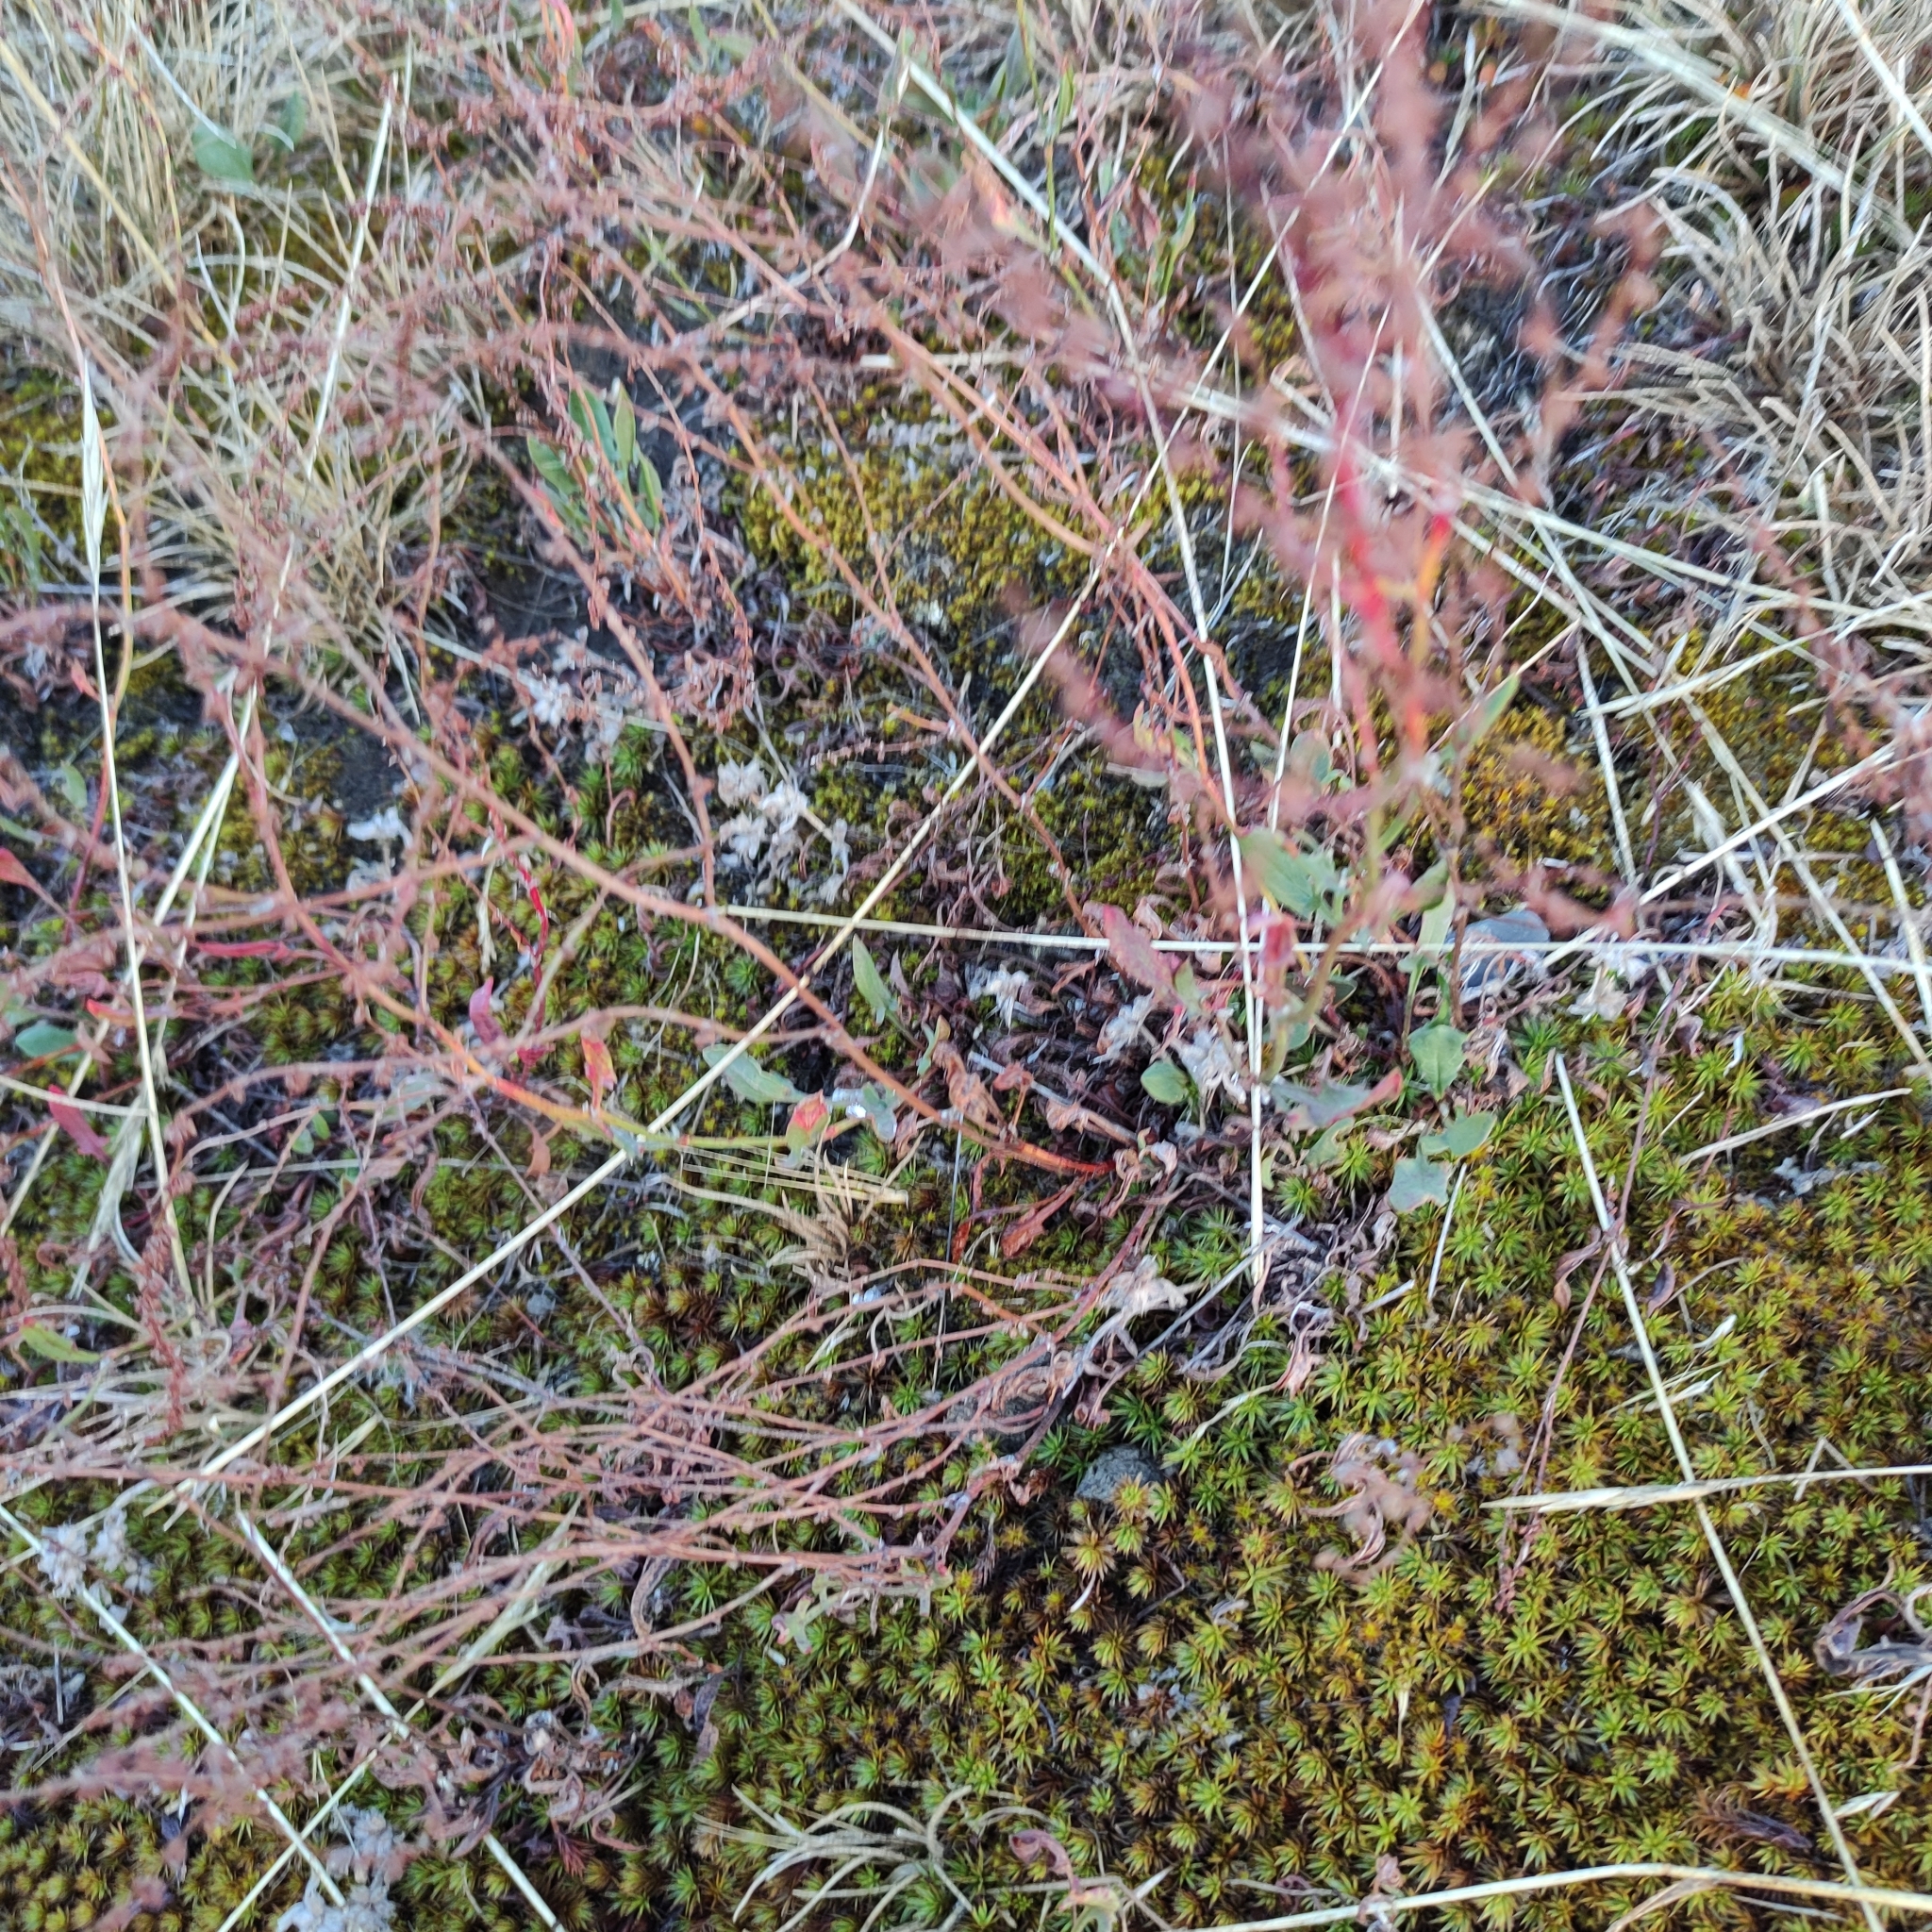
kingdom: Plantae
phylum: Tracheophyta
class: Magnoliopsida
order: Caryophyllales
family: Polygonaceae
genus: Rumex
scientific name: Rumex acetosella
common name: Common sheep sorrel
